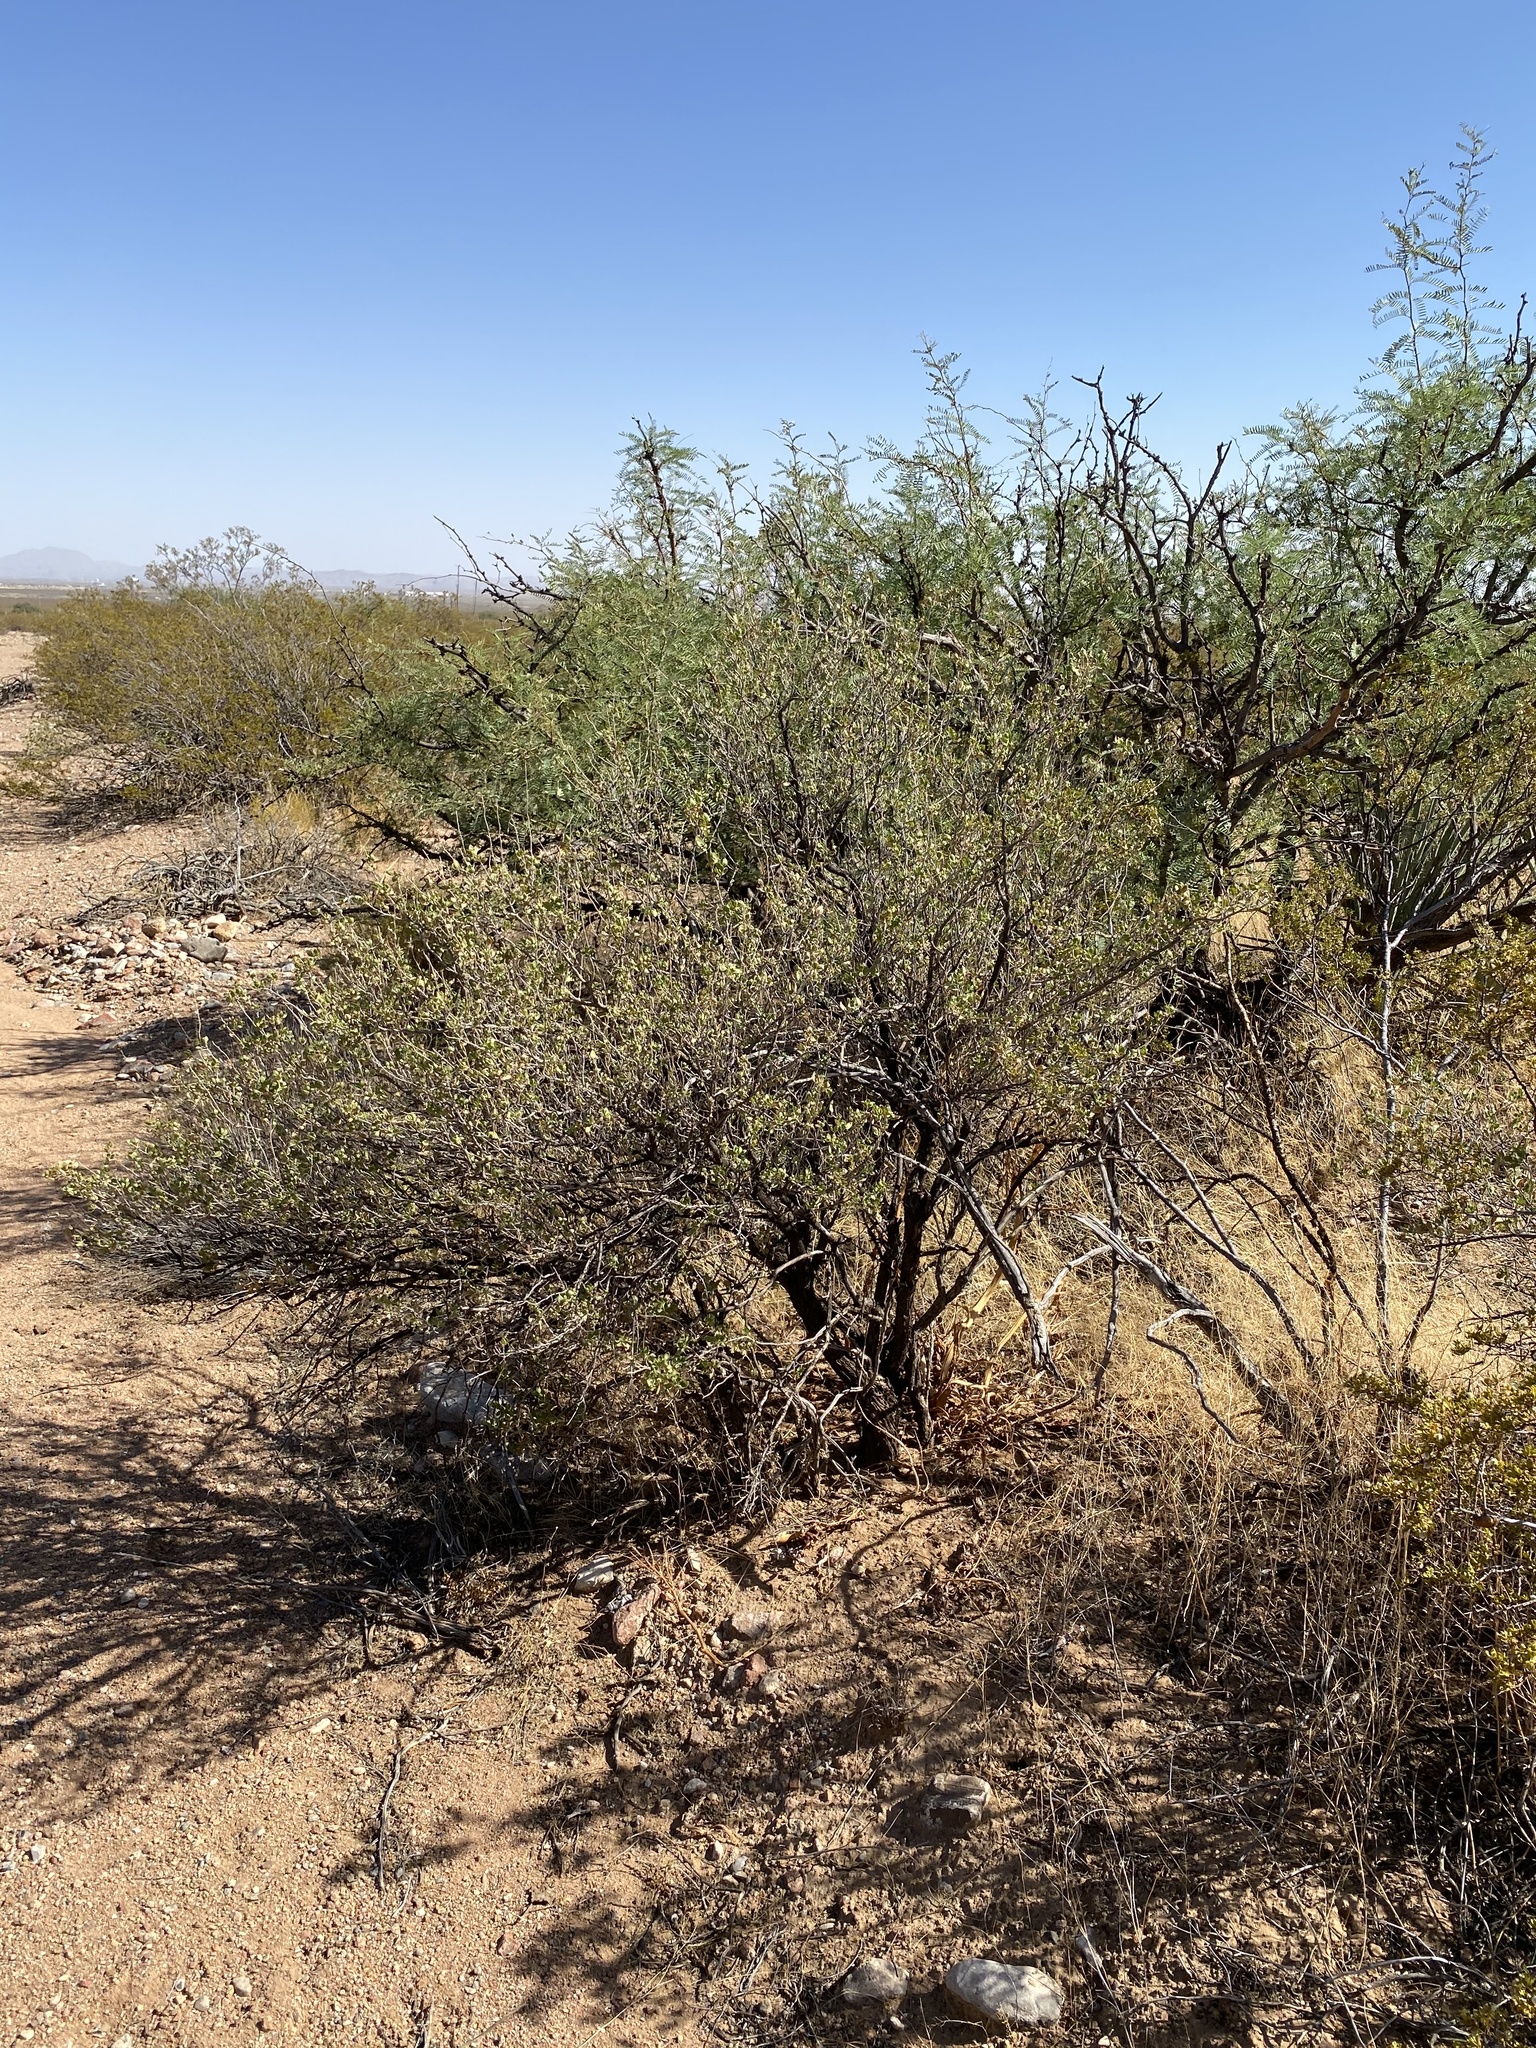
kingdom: Plantae
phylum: Tracheophyta
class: Magnoliopsida
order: Asterales
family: Asteraceae
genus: Flourensia
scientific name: Flourensia cernua
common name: Varnishbush
